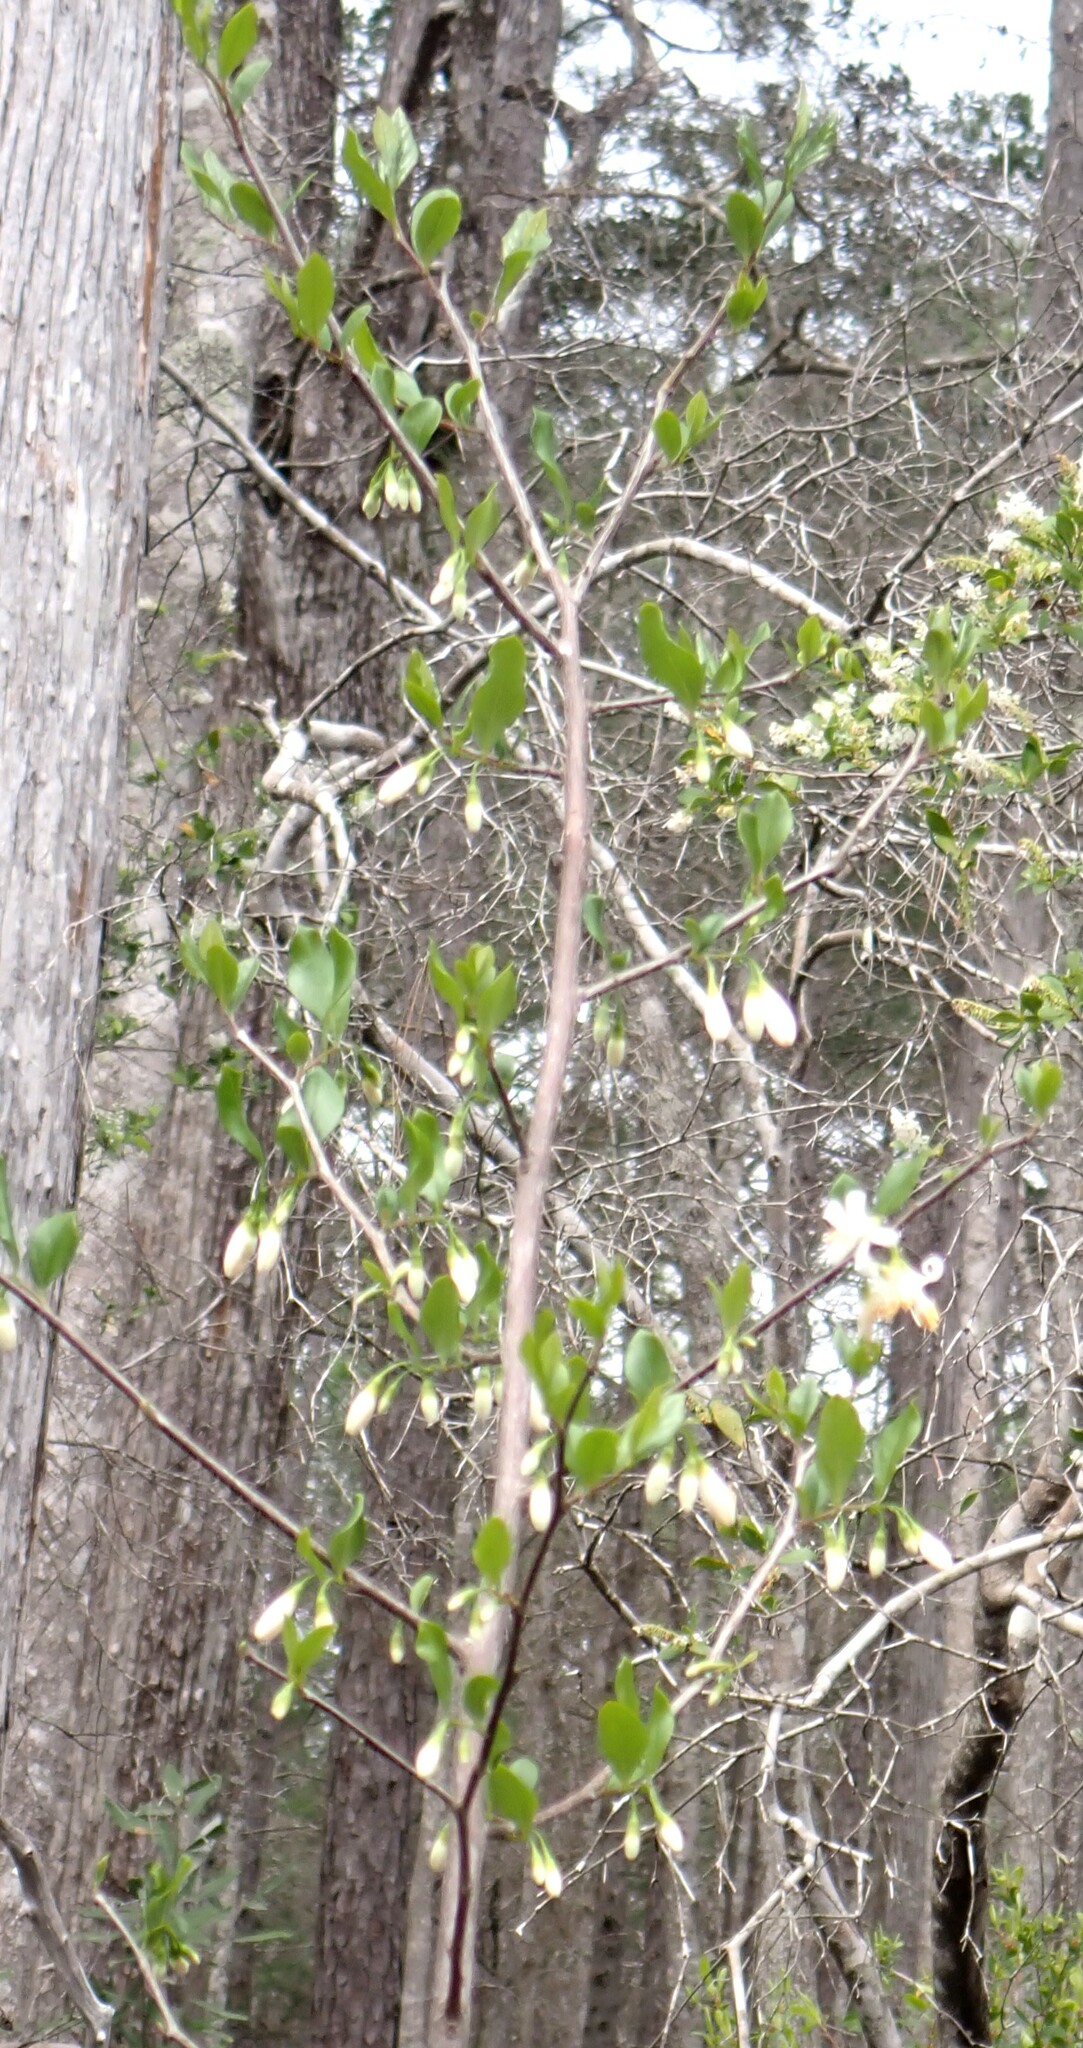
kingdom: Plantae
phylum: Tracheophyta
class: Magnoliopsida
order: Ericales
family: Styracaceae
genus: Styrax
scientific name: Styrax americanus
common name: American snowbell
